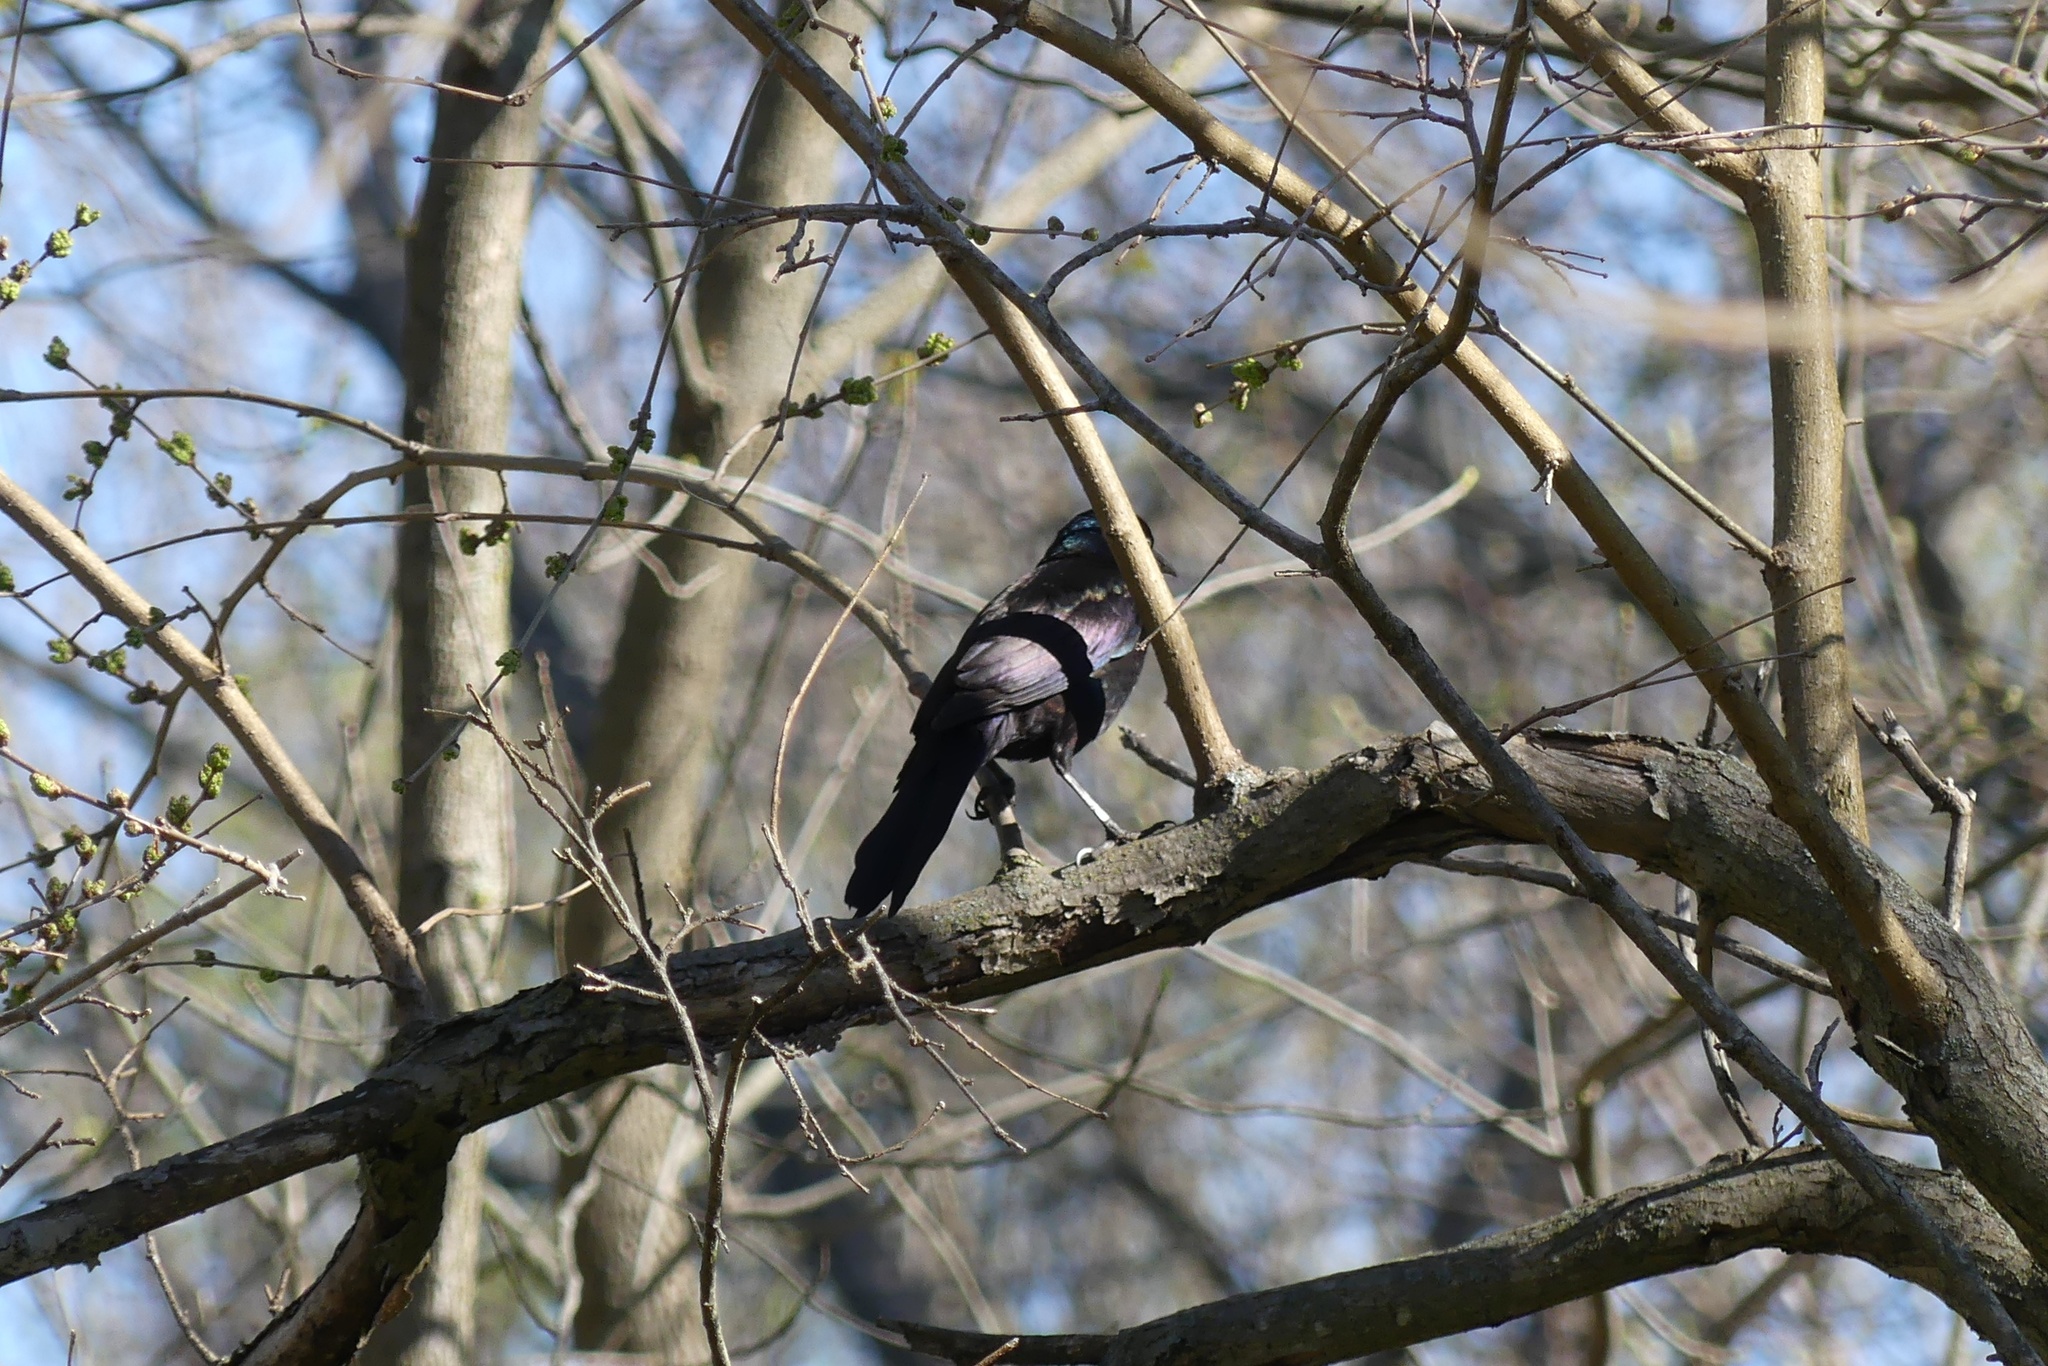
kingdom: Animalia
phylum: Chordata
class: Aves
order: Passeriformes
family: Icteridae
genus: Quiscalus
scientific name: Quiscalus quiscula
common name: Common grackle
